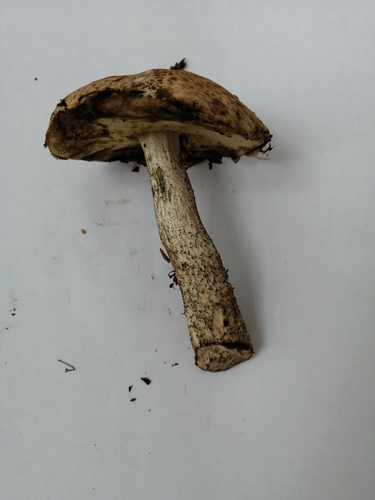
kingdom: Fungi
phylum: Basidiomycota
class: Agaricomycetes
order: Boletales
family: Boletaceae
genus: Leccinum
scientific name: Leccinum
